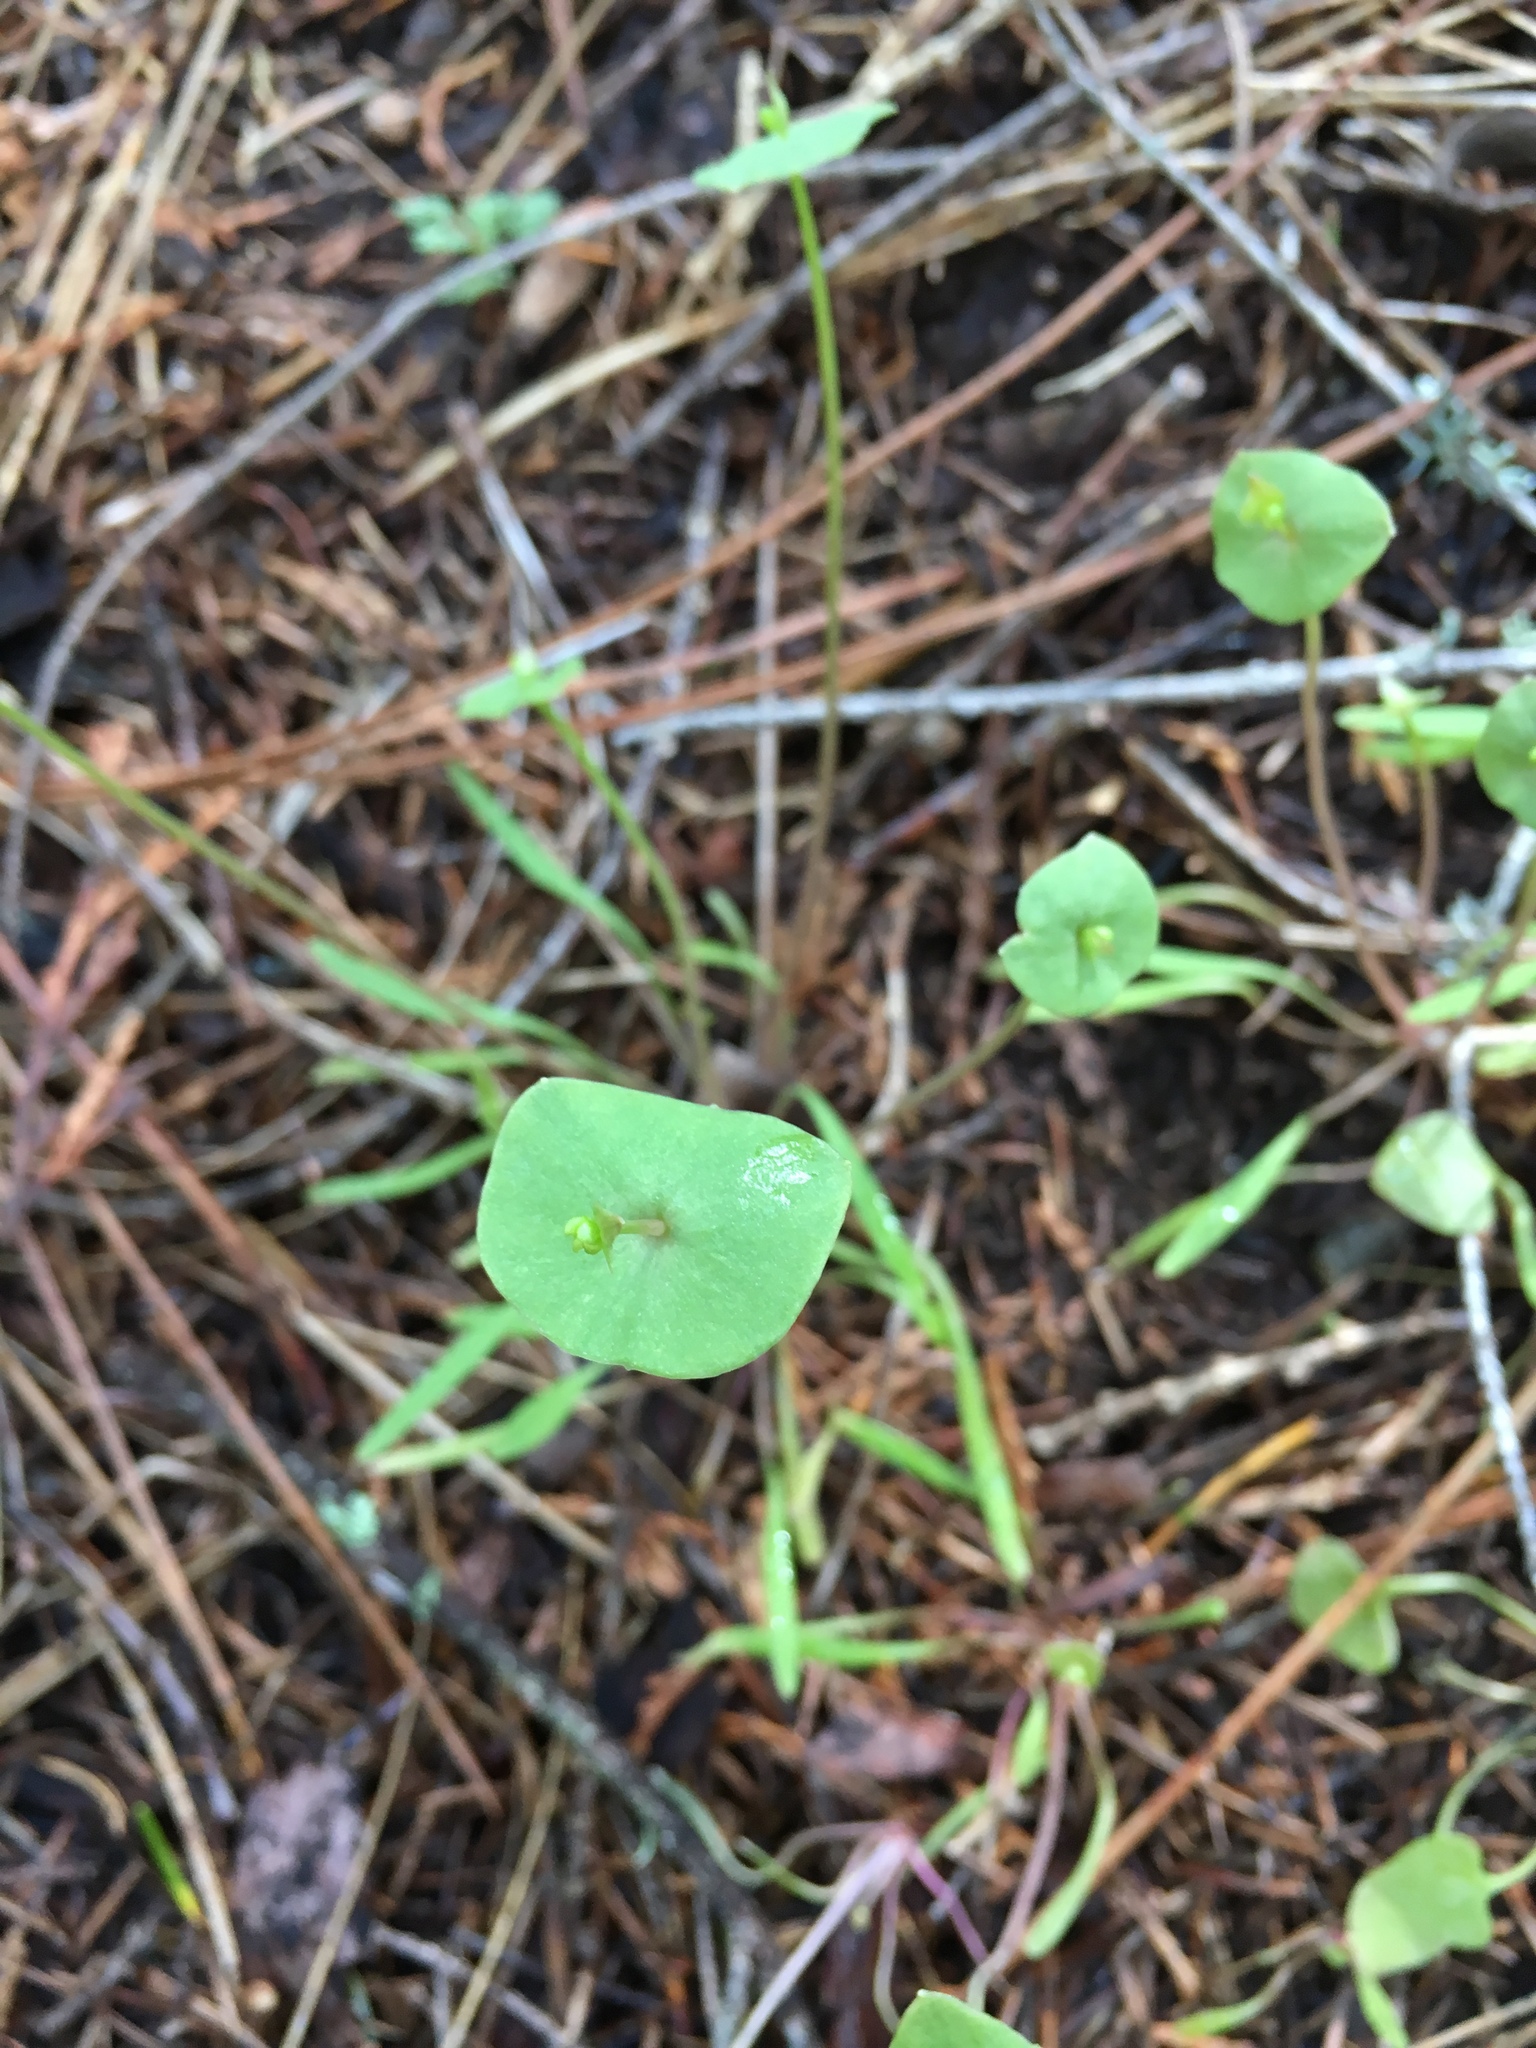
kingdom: Plantae
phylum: Tracheophyta
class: Magnoliopsida
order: Caryophyllales
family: Montiaceae
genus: Claytonia
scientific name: Claytonia parviflora
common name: Indian-lettuce
